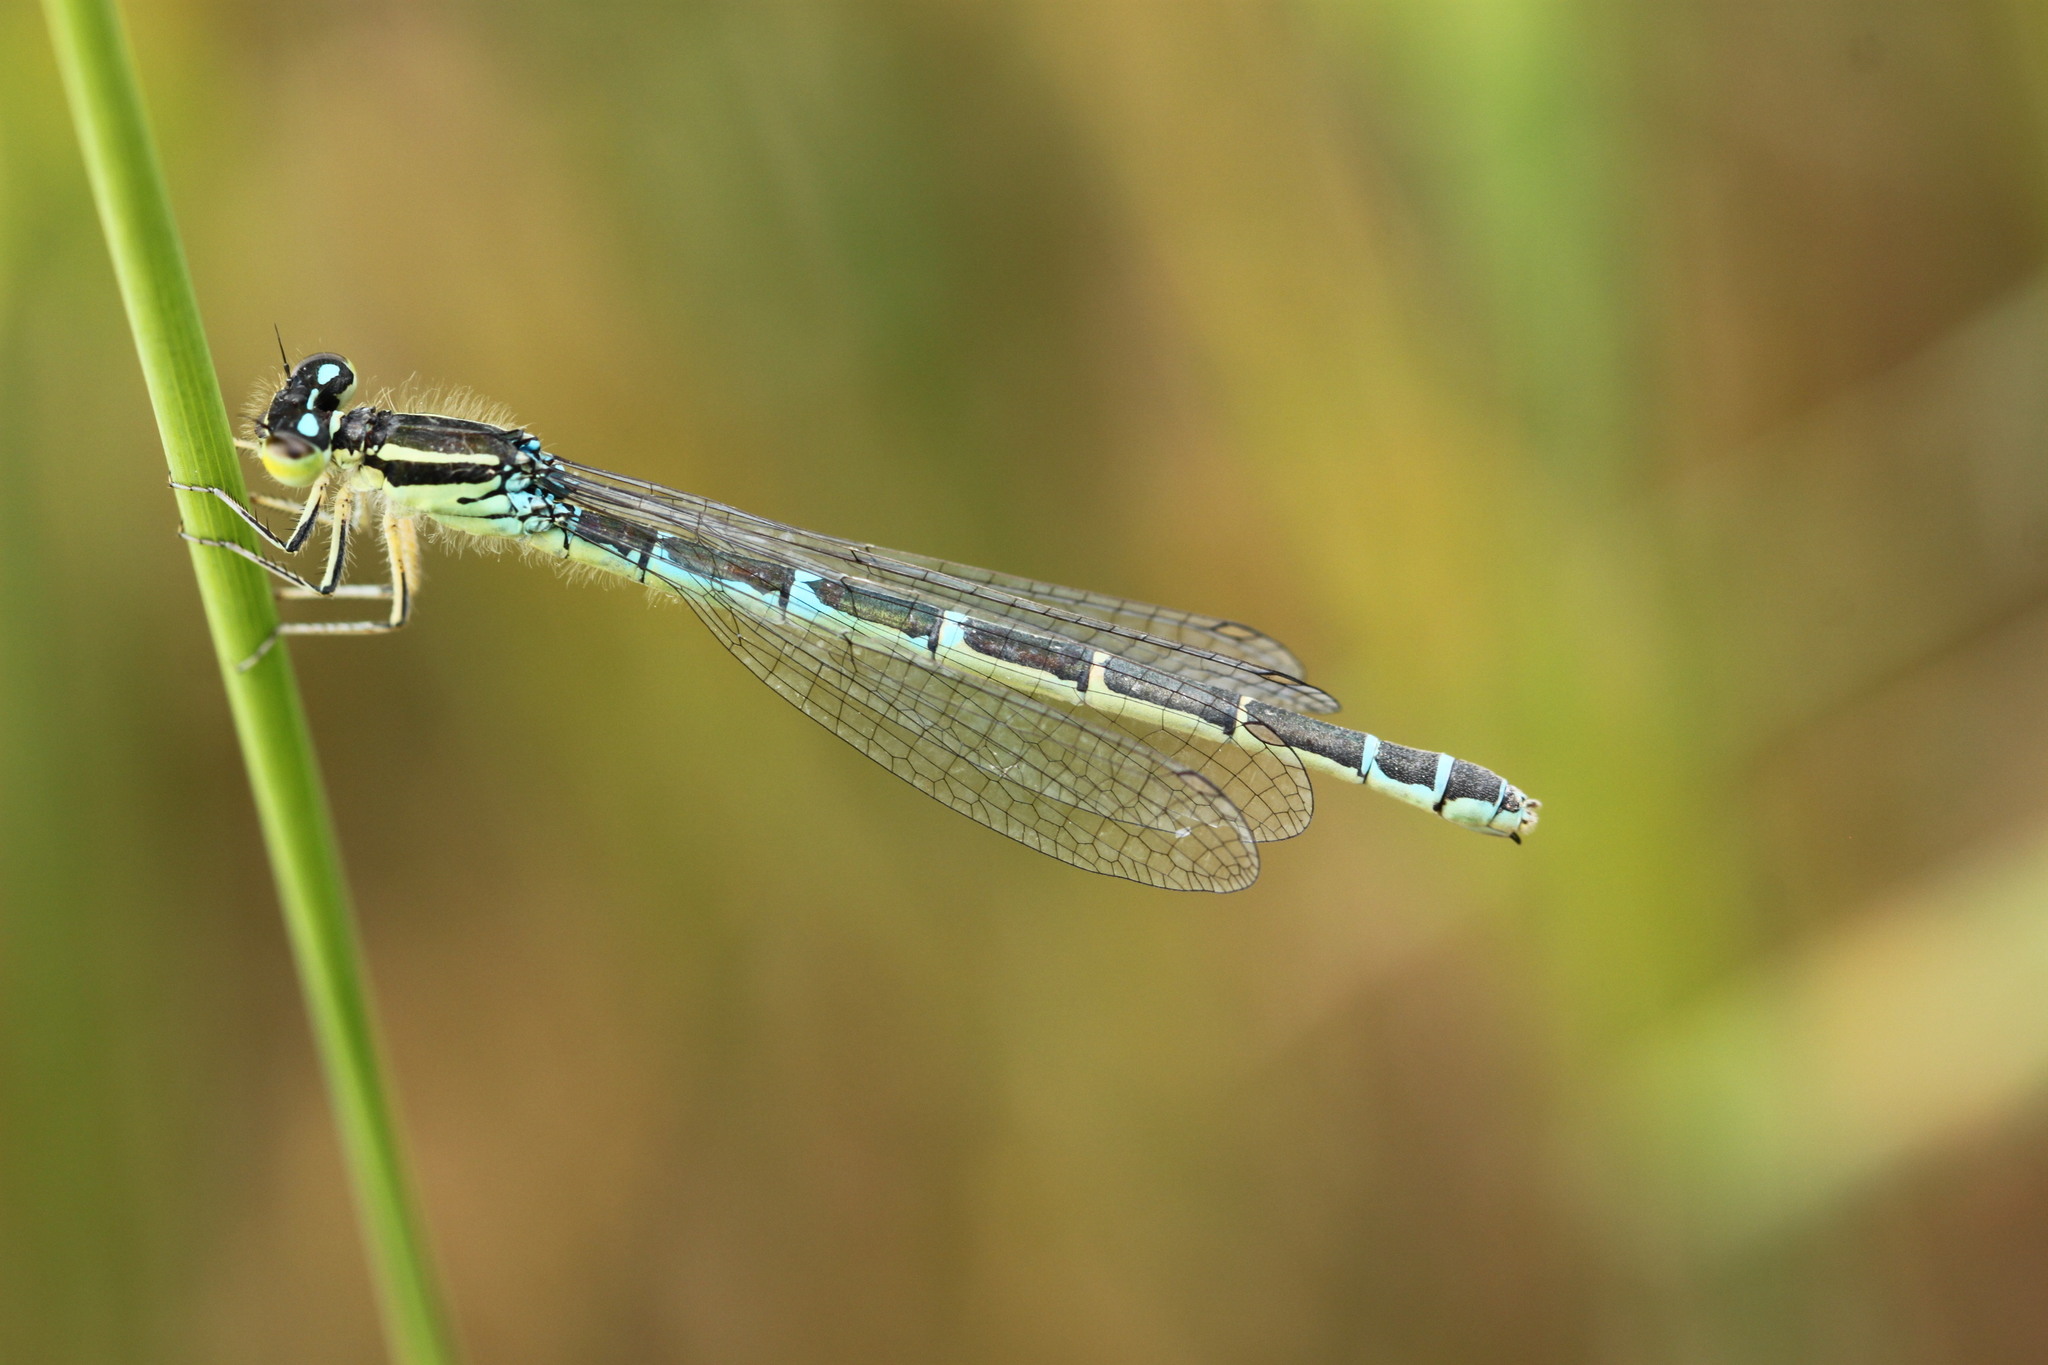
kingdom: Animalia
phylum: Arthropoda
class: Insecta
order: Odonata
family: Coenagrionidae
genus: Coenagrion
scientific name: Coenagrion scitulum
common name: Dainty bluet
